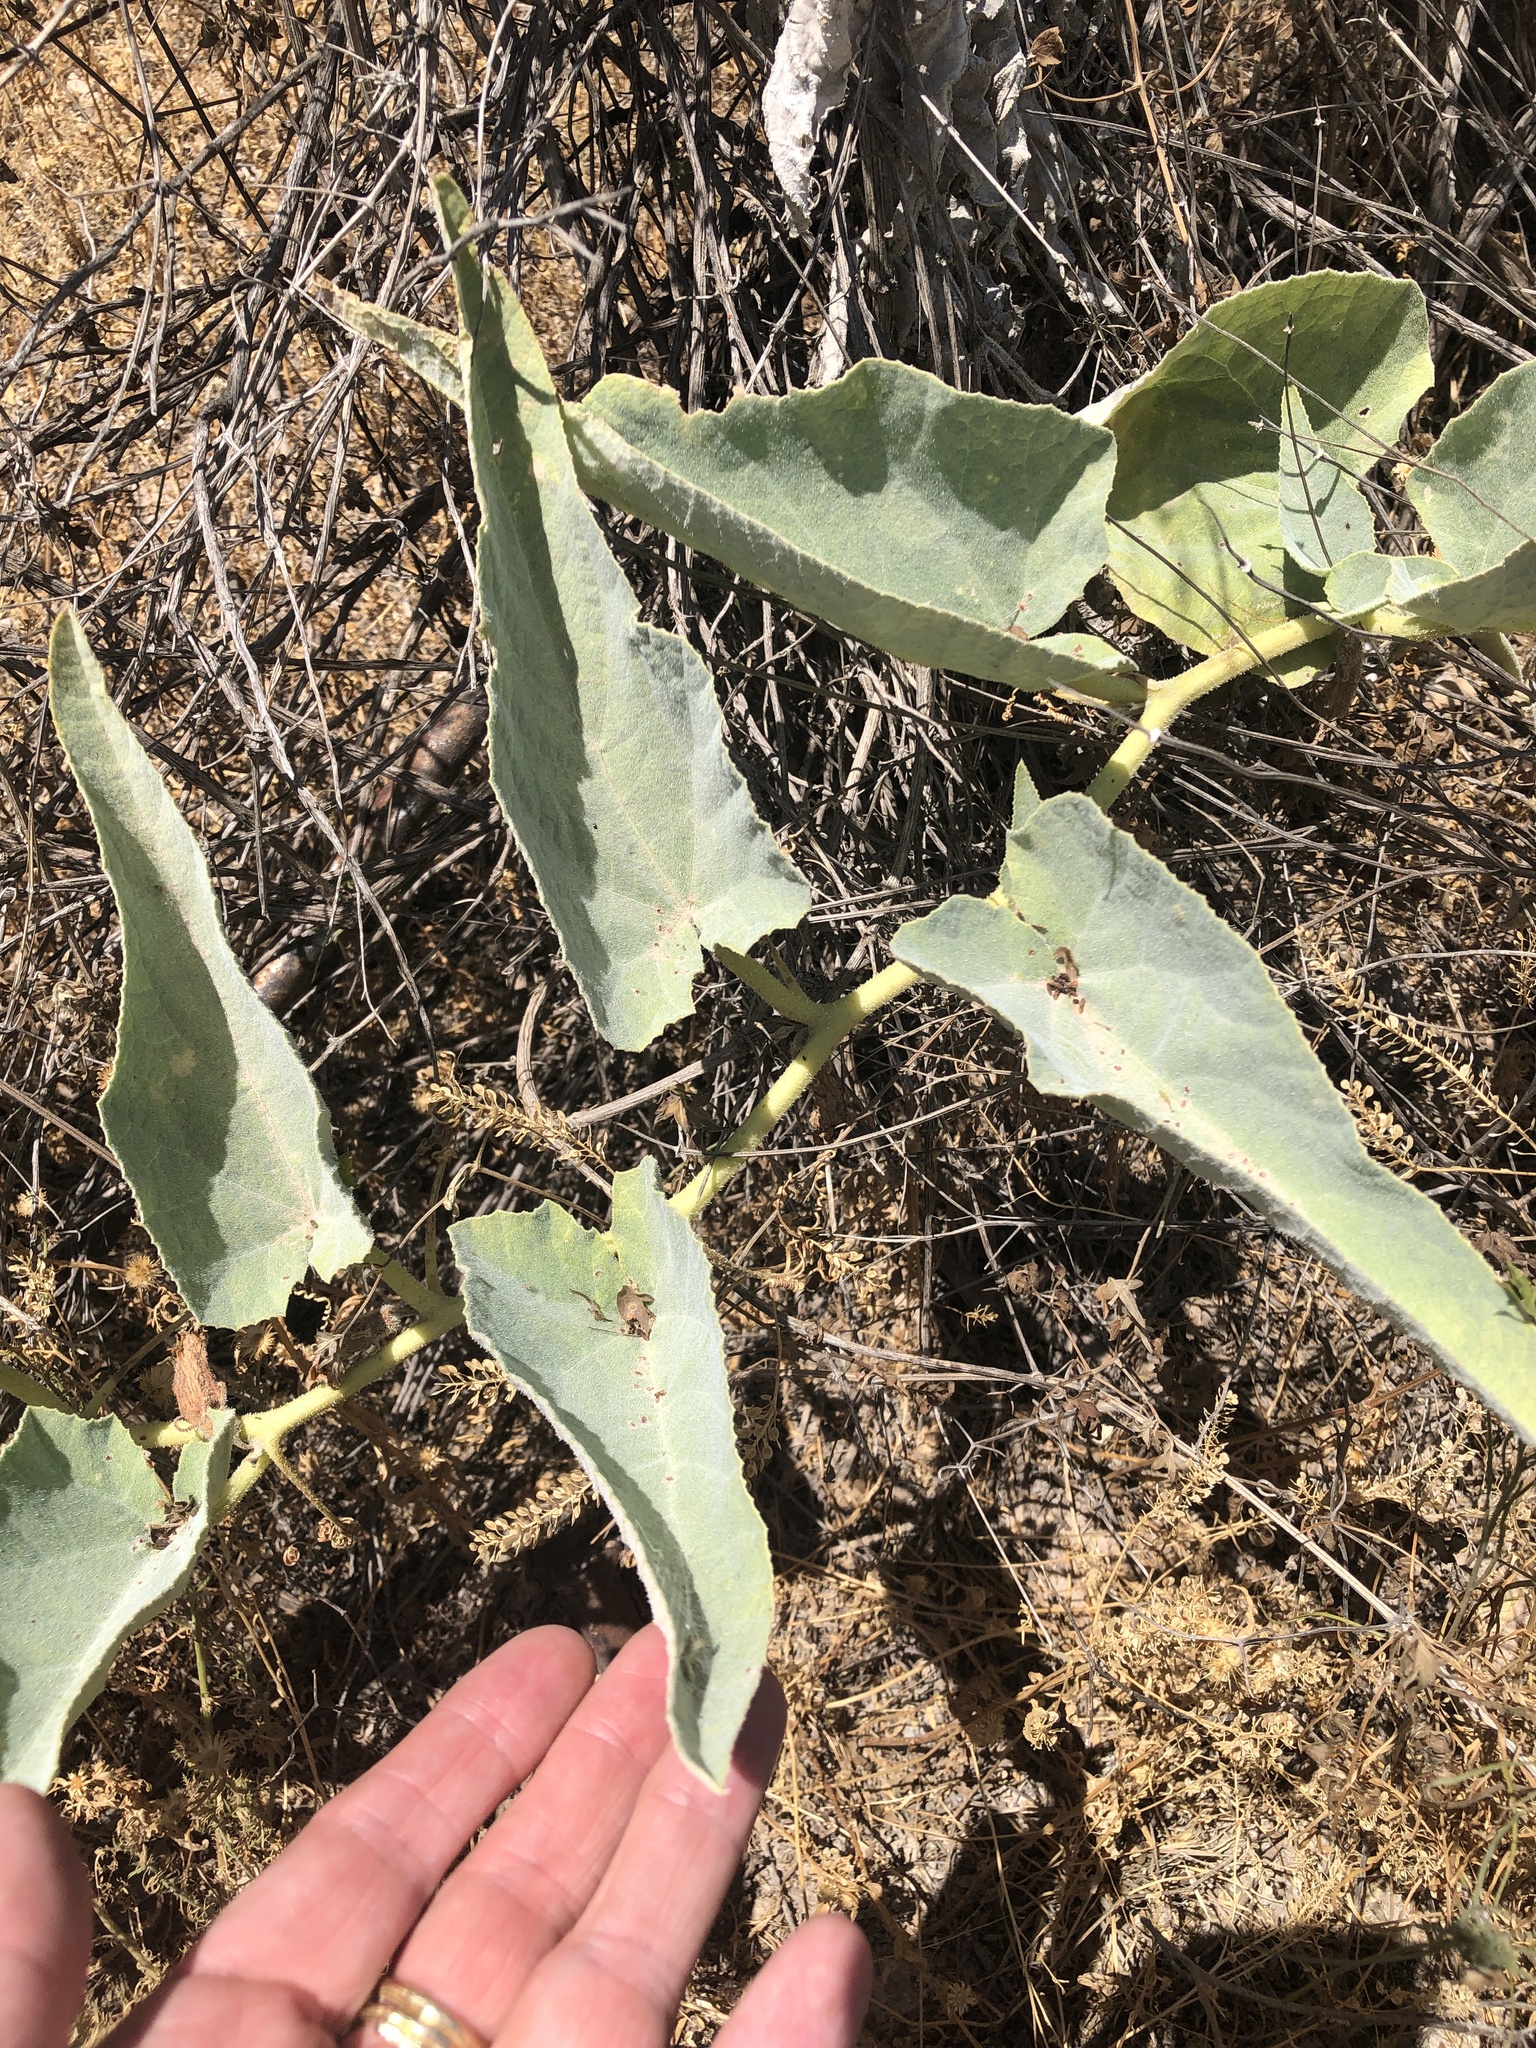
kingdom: Plantae
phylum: Tracheophyta
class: Magnoliopsida
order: Cucurbitales
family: Cucurbitaceae
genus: Cucurbita
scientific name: Cucurbita foetidissima
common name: Buffalo gourd
